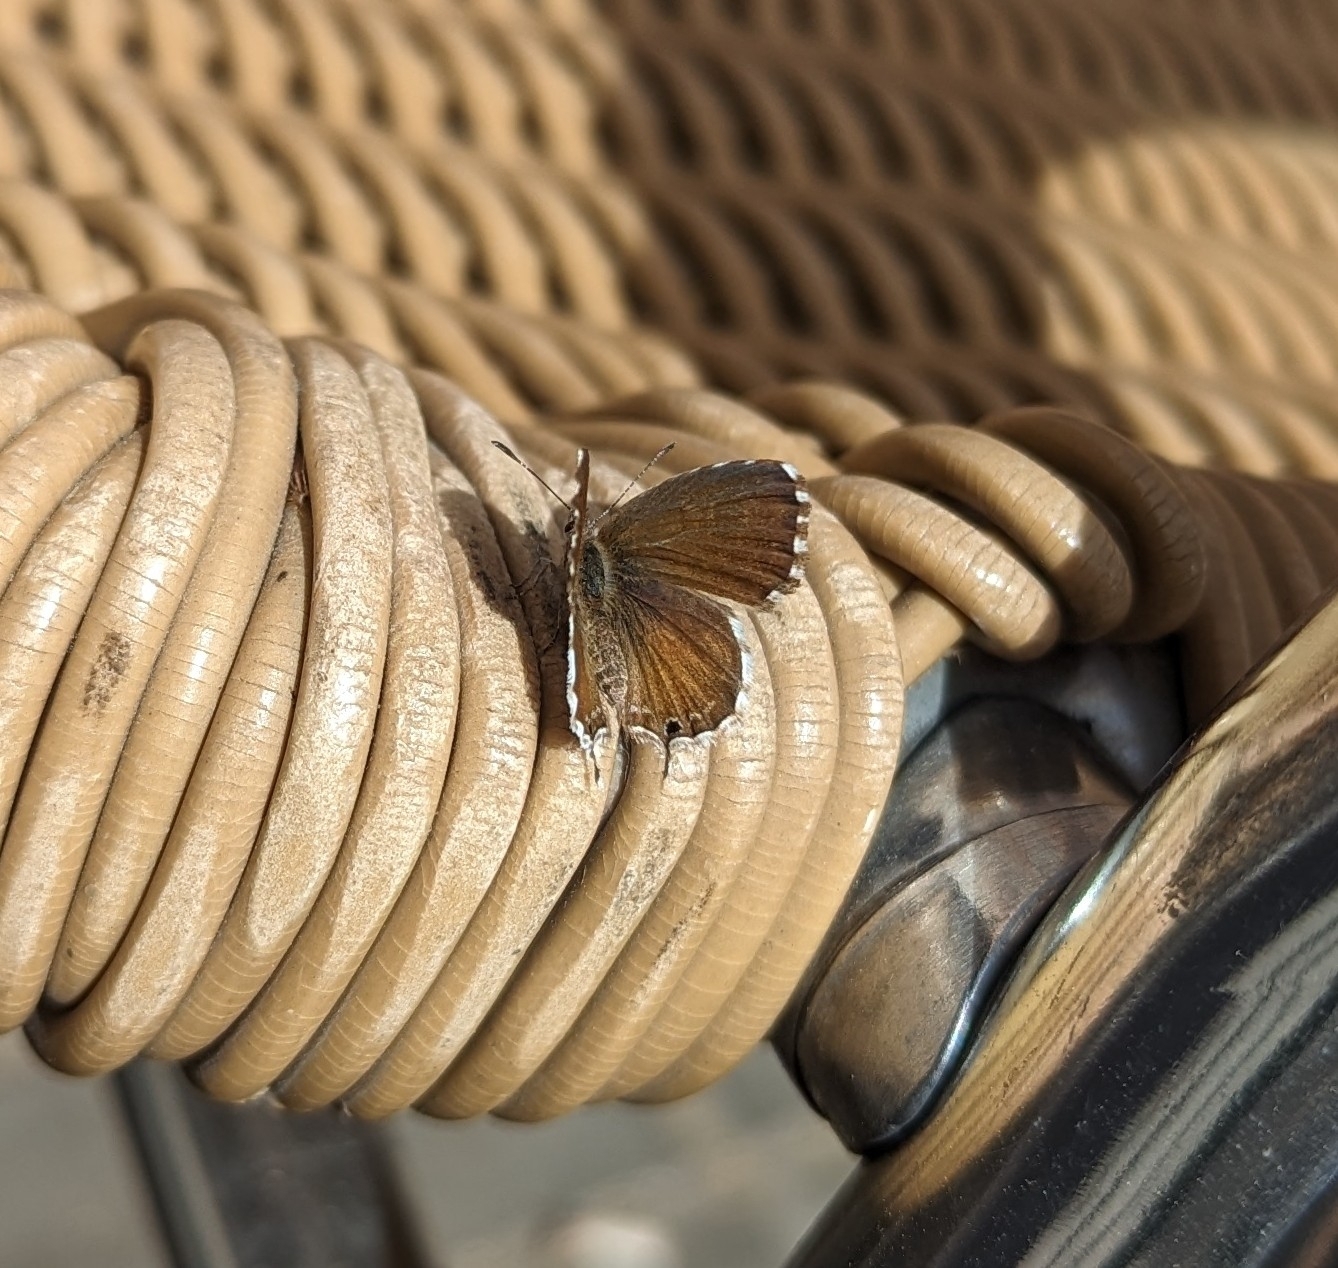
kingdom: Animalia
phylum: Arthropoda
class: Insecta
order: Lepidoptera
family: Lycaenidae
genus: Cacyreus
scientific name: Cacyreus marshalli
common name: Geranium bronze
